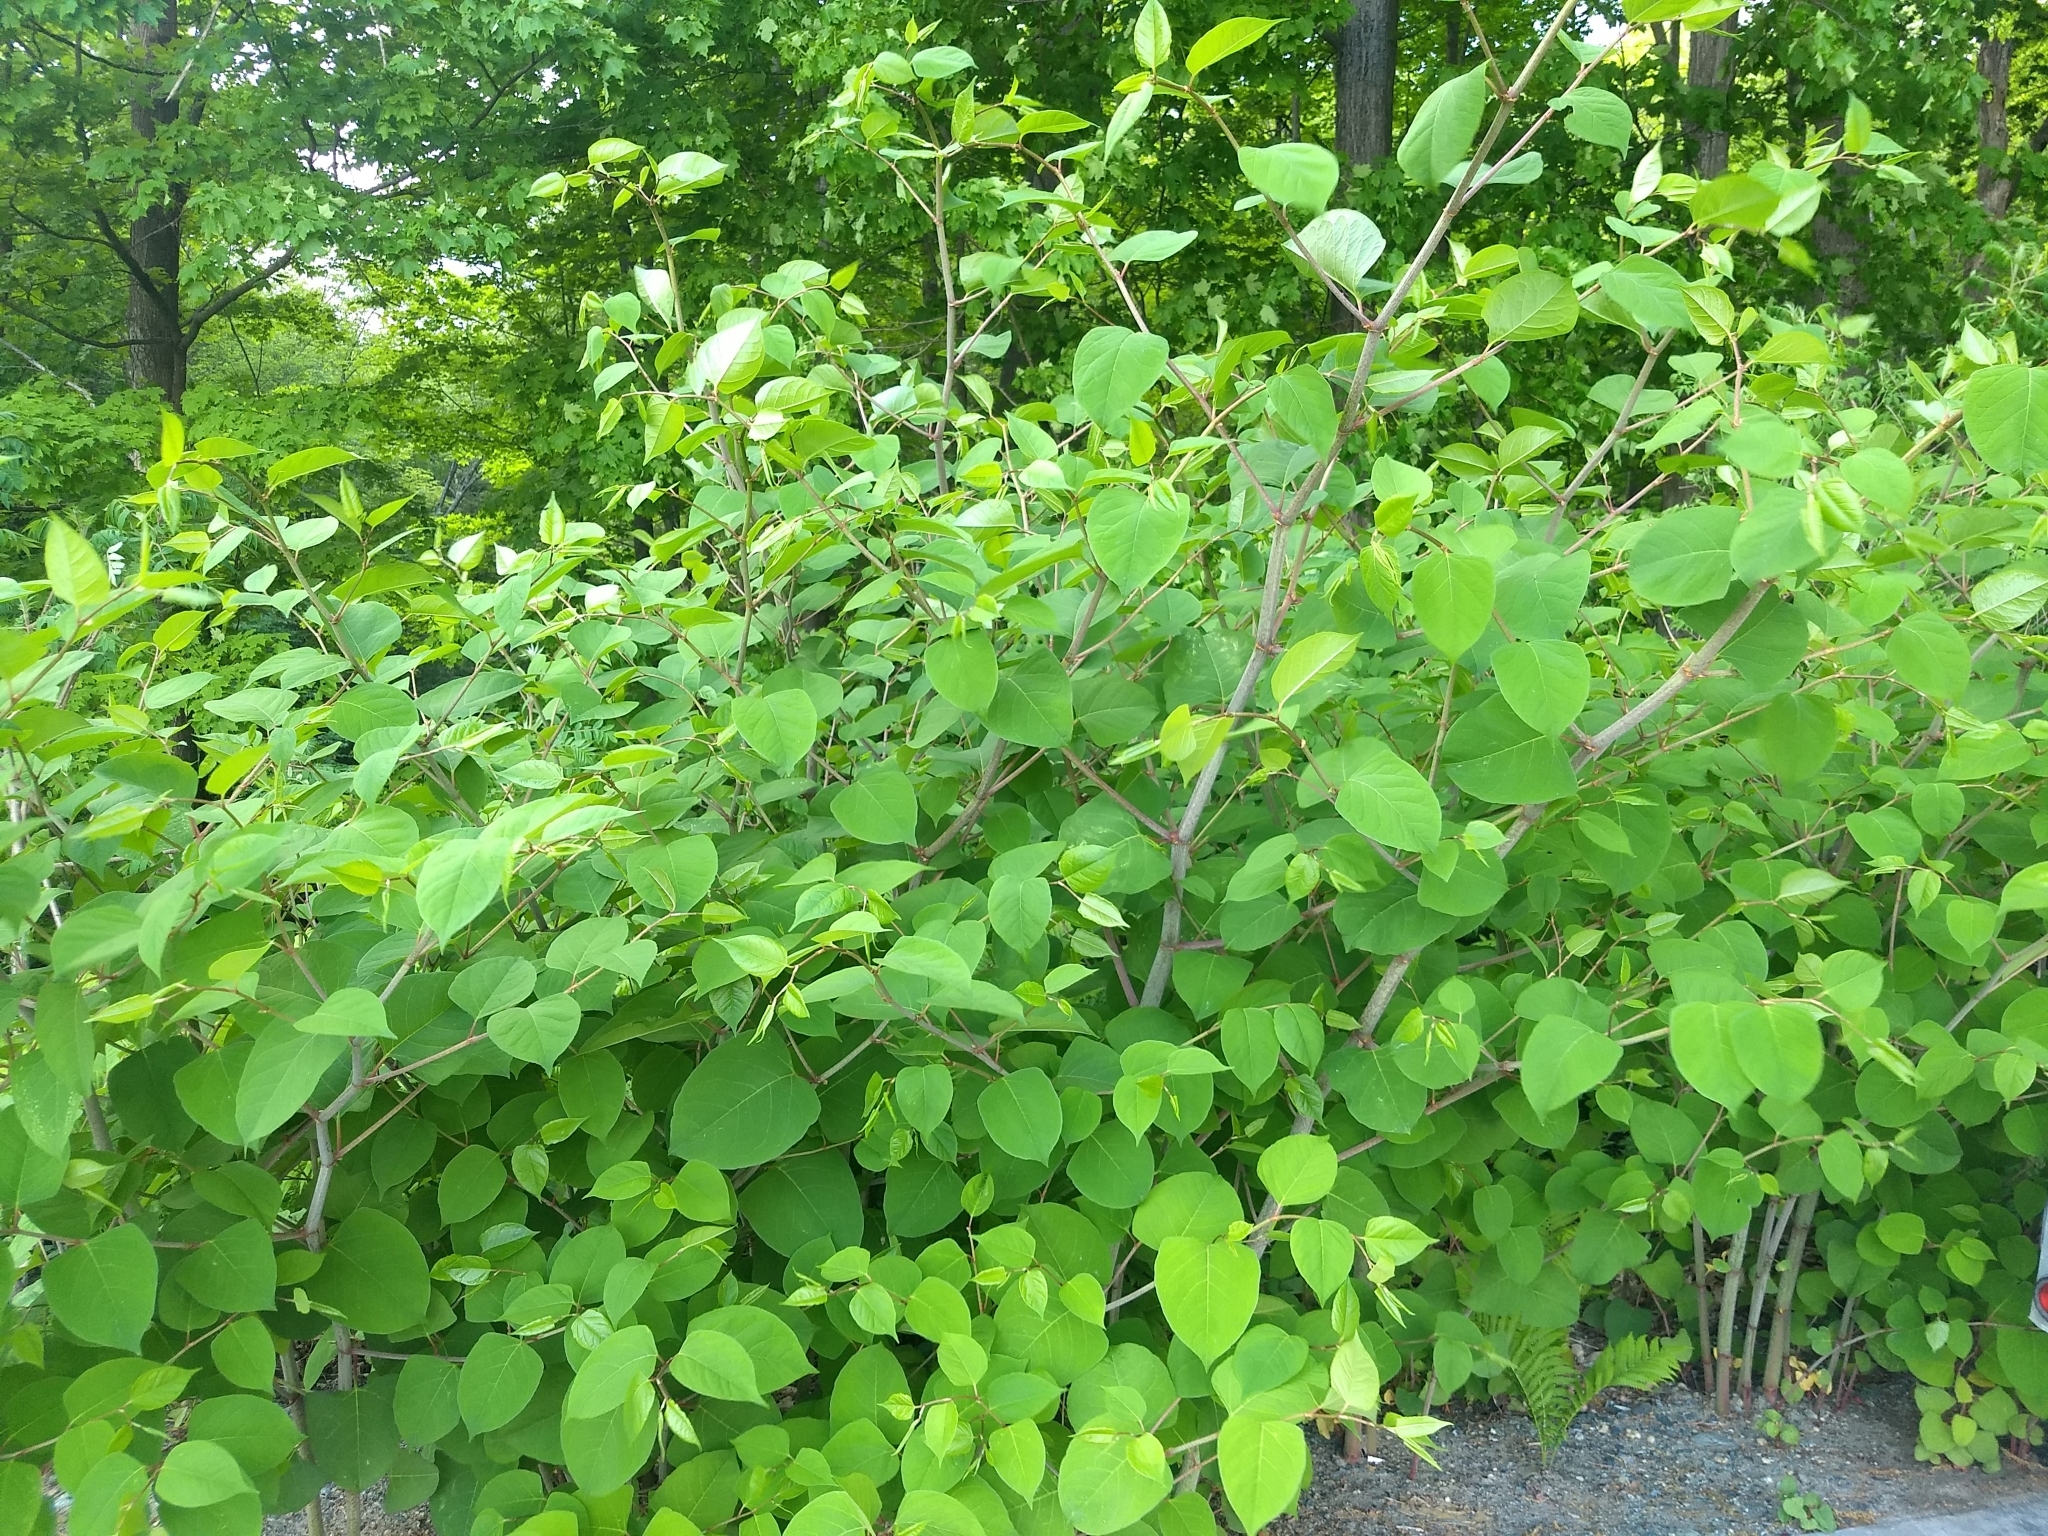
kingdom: Plantae
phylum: Tracheophyta
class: Magnoliopsida
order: Caryophyllales
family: Polygonaceae
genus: Reynoutria
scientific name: Reynoutria japonica
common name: Japanese knotweed
